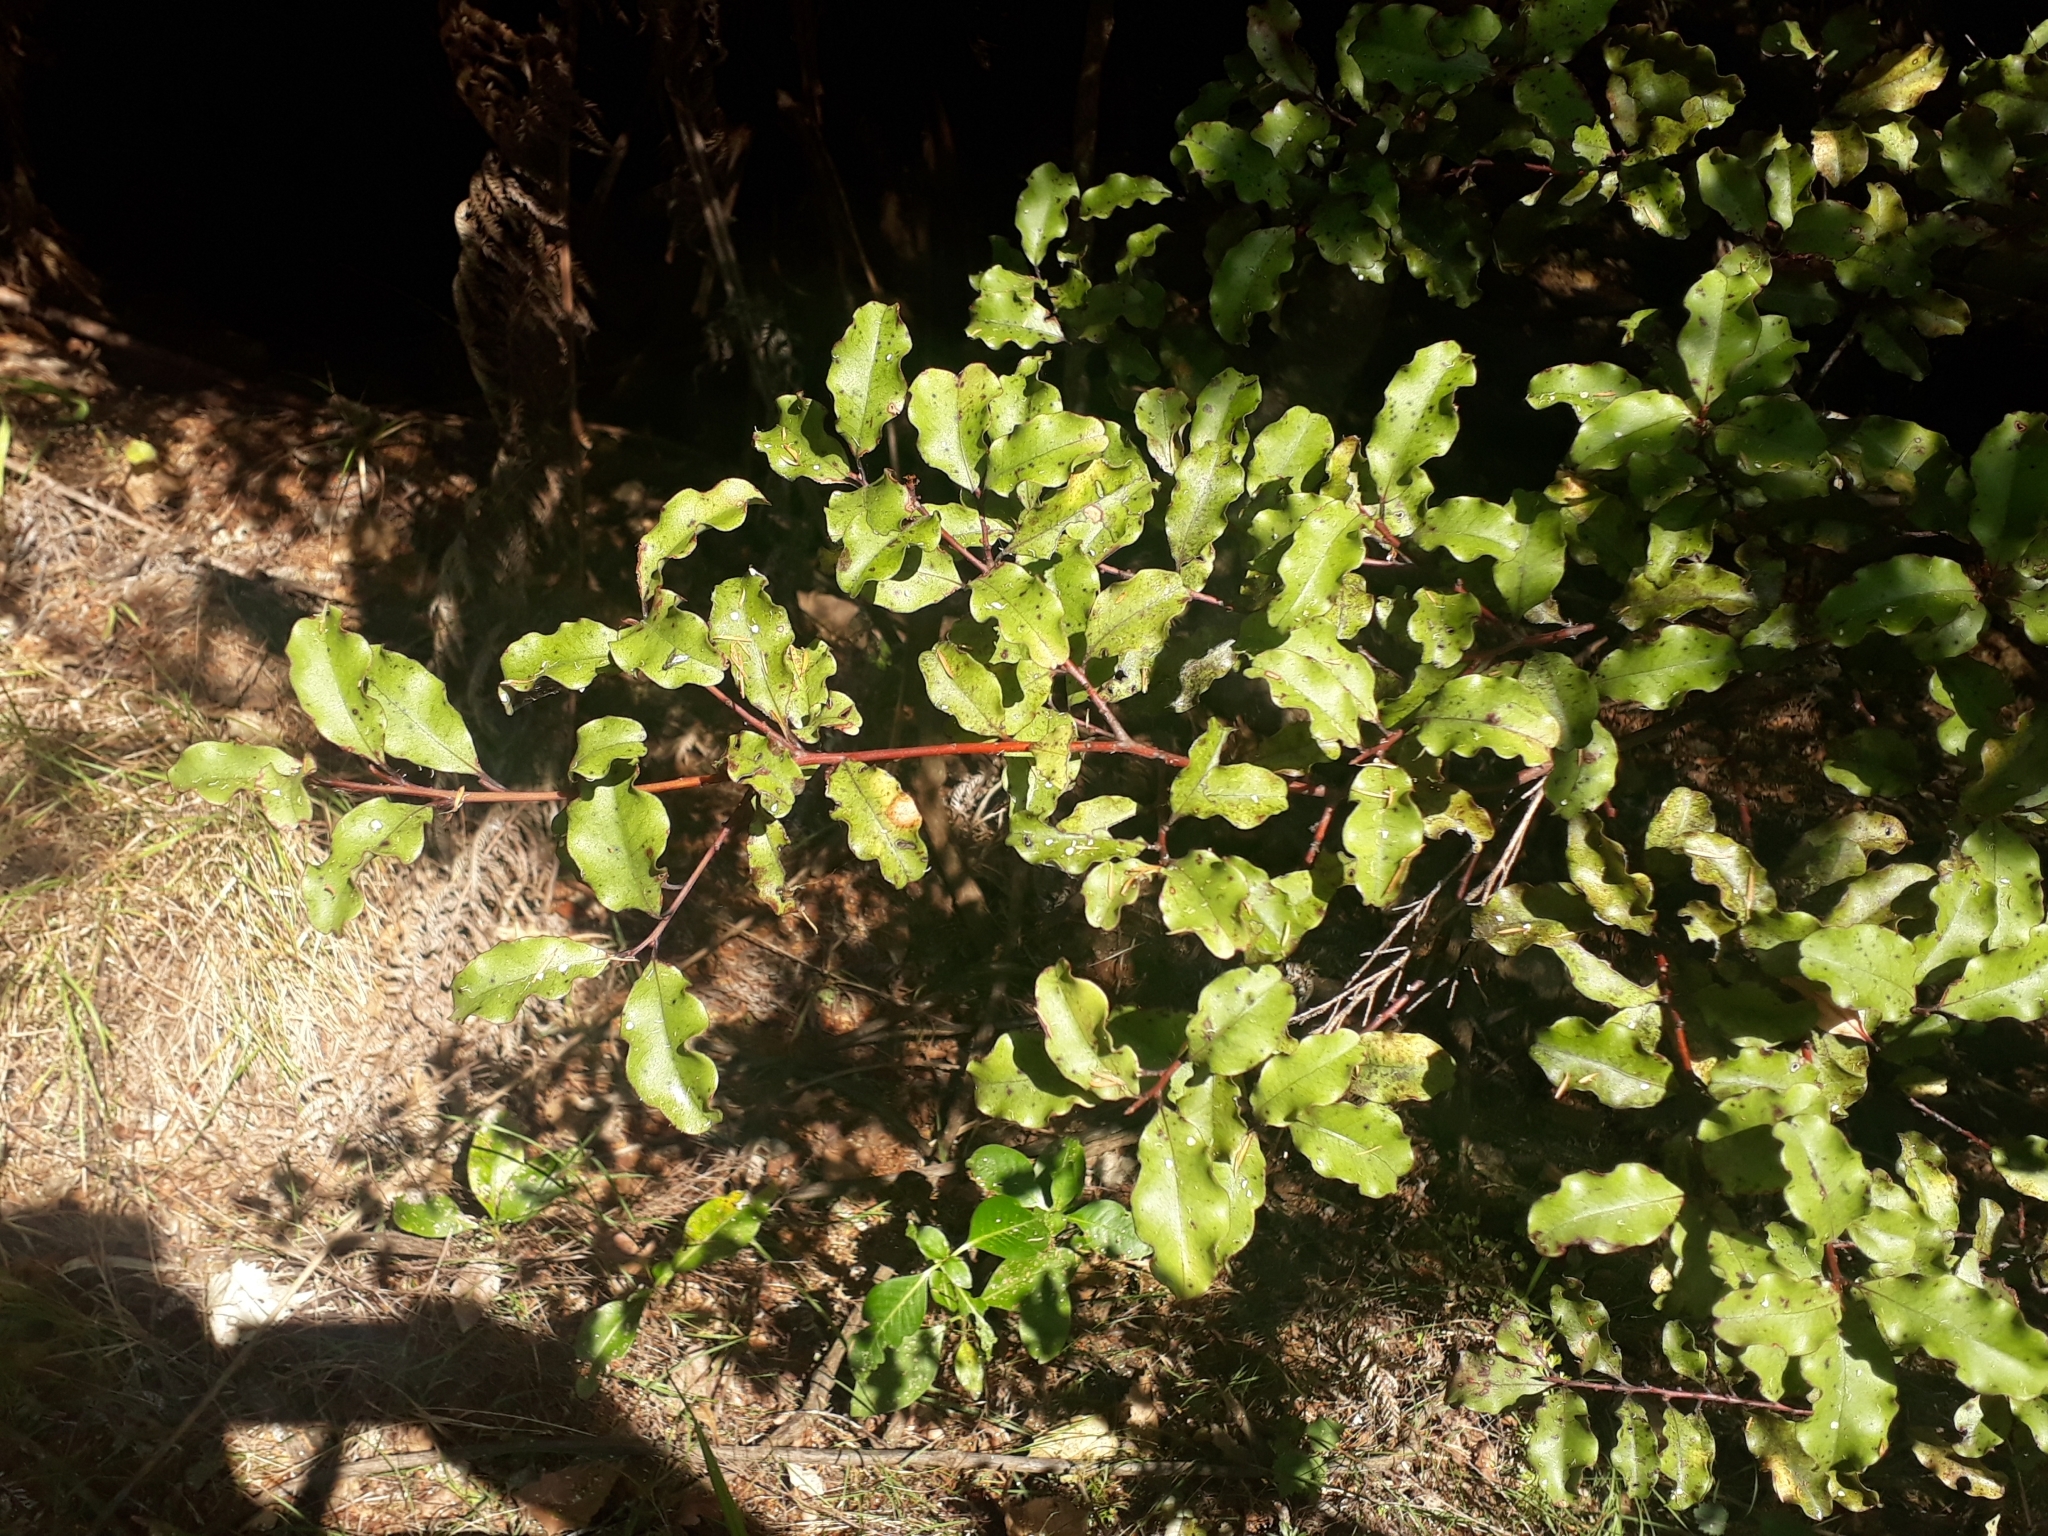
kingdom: Plantae
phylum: Tracheophyta
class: Magnoliopsida
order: Ericales
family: Primulaceae
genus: Myrsine
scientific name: Myrsine australis
